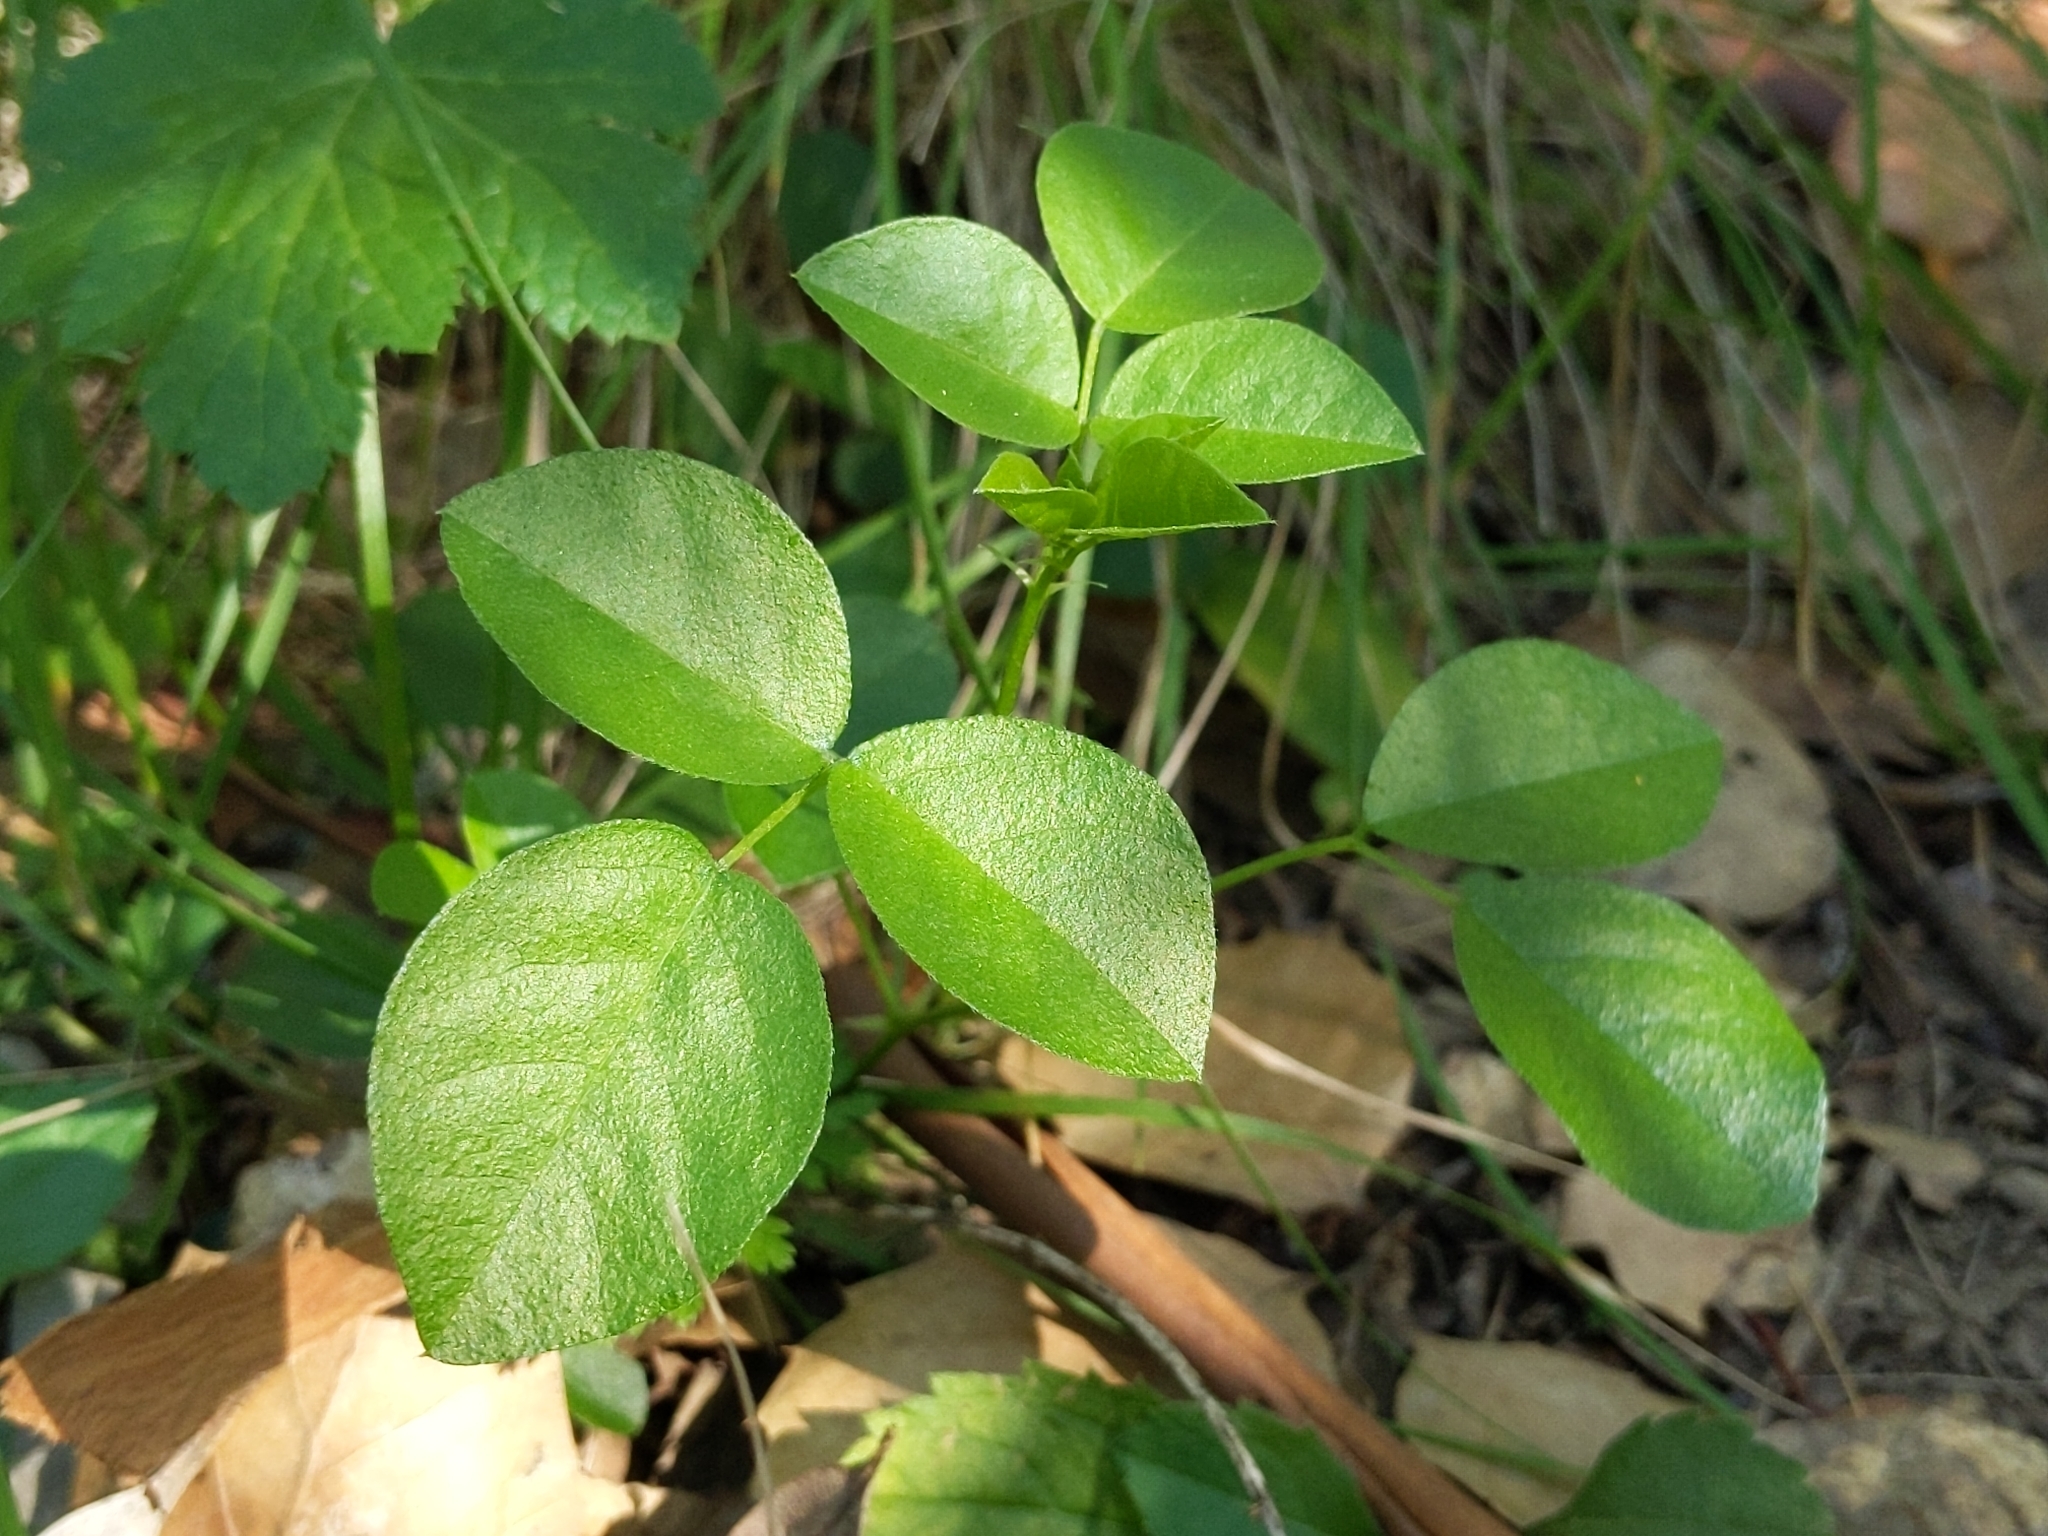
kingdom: Plantae
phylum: Tracheophyta
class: Magnoliopsida
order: Fabales
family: Fabaceae
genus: Rupertia
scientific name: Rupertia physodes
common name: California-tea
